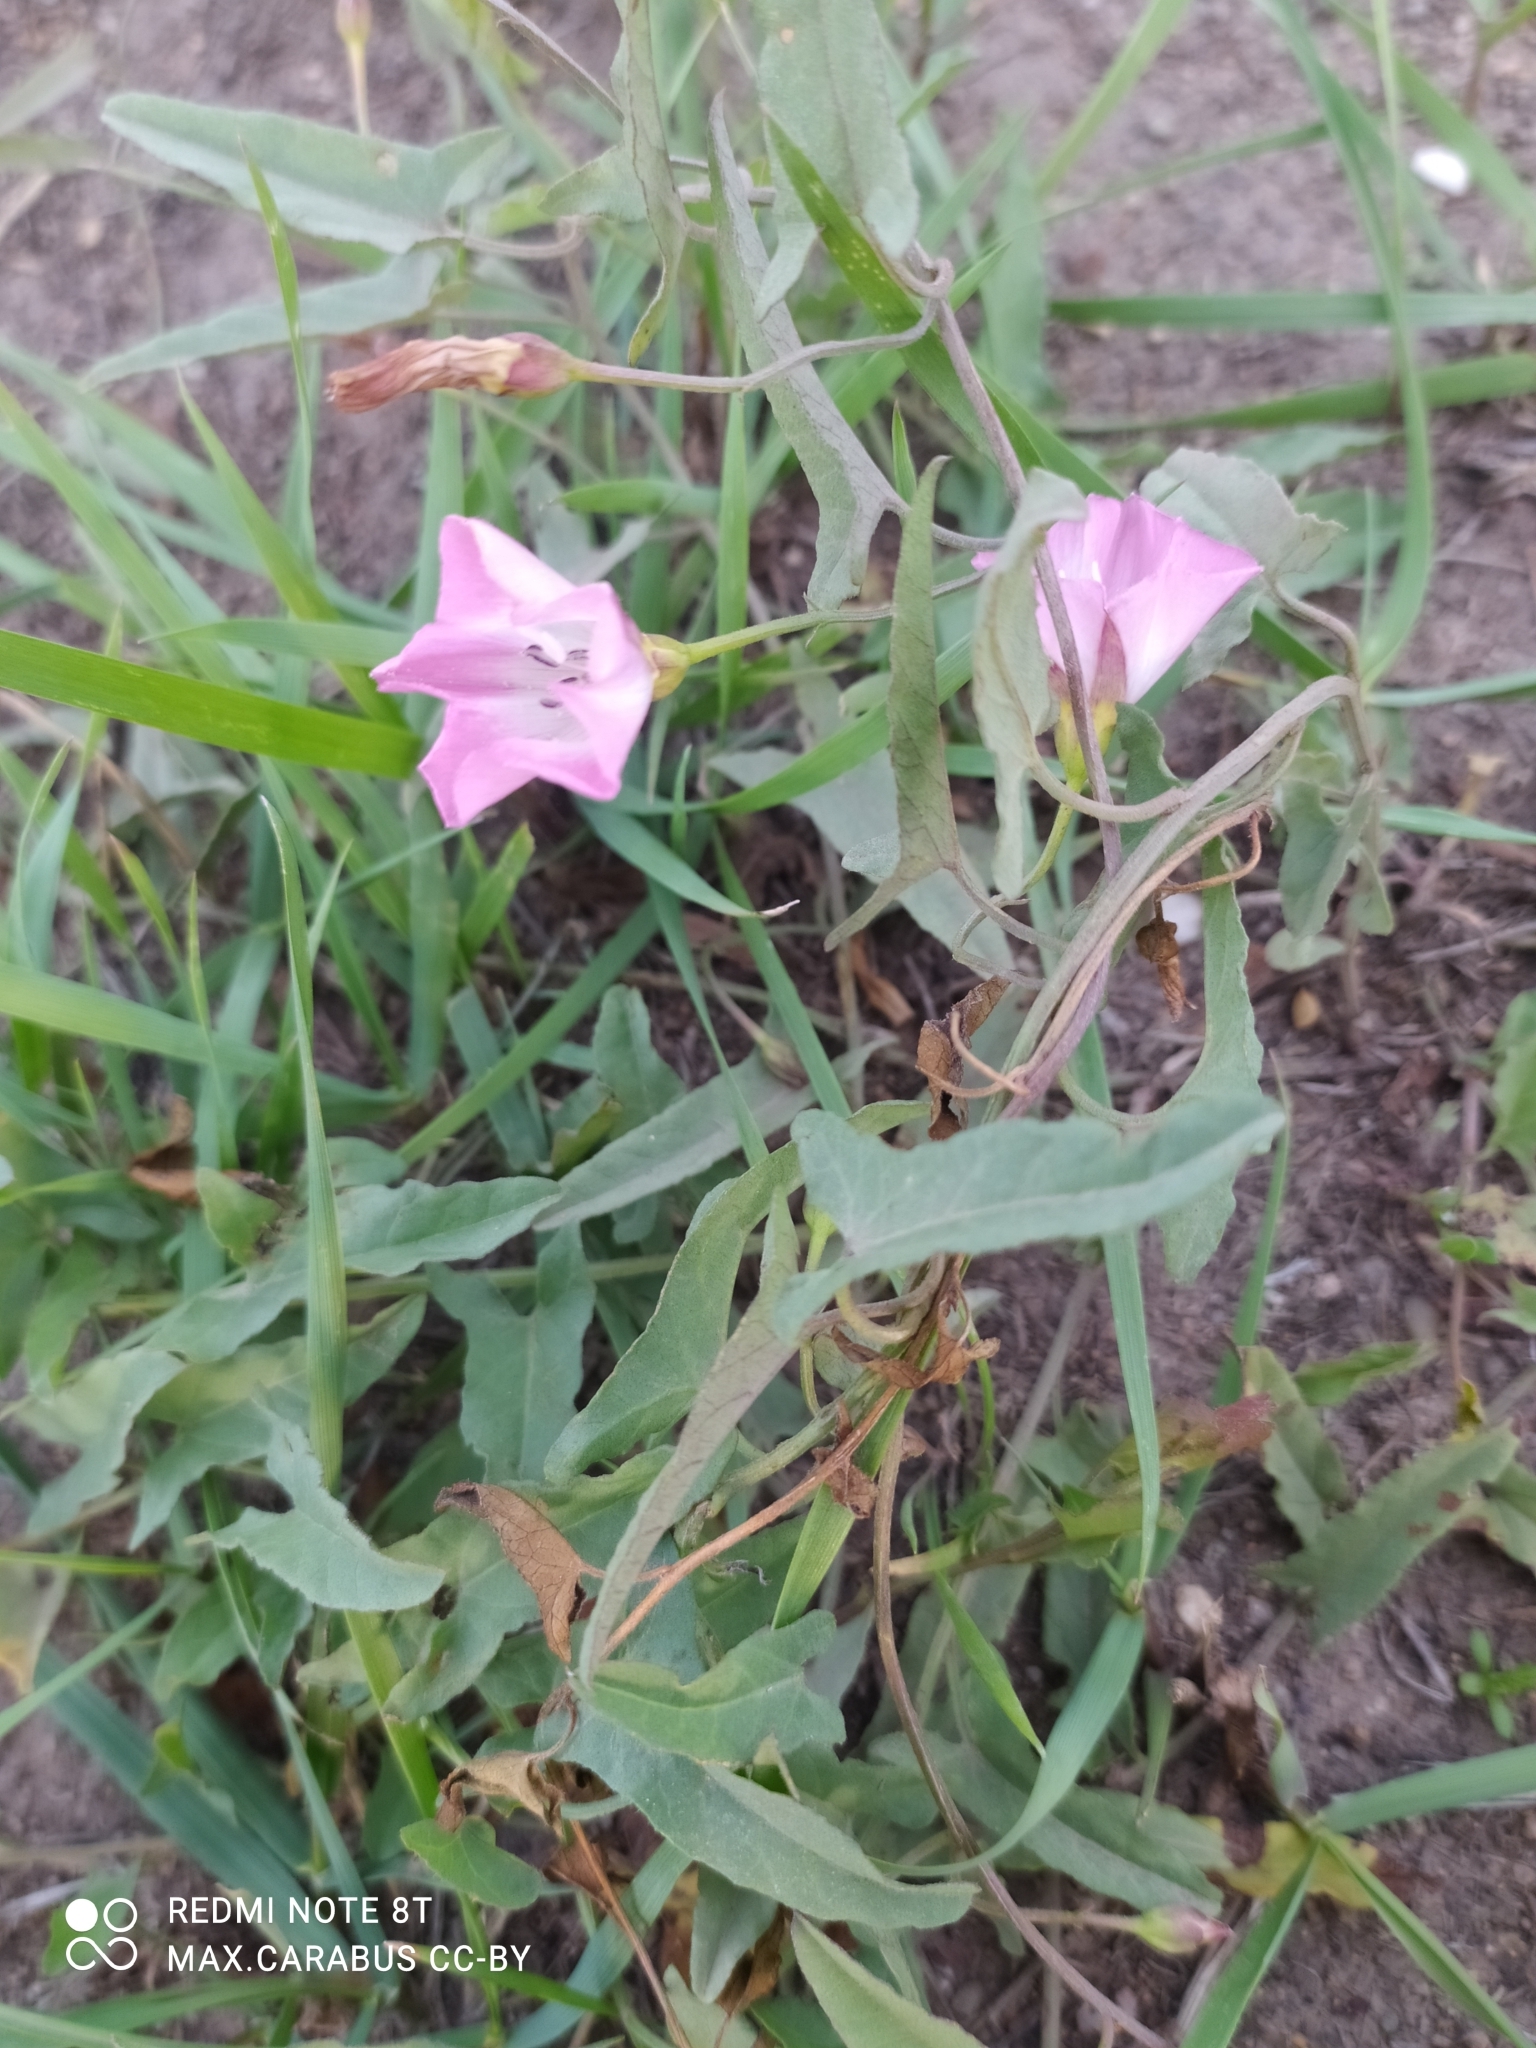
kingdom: Plantae
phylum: Tracheophyta
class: Magnoliopsida
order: Solanales
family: Convolvulaceae
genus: Convolvulus
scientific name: Convolvulus arvensis
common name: Field bindweed
